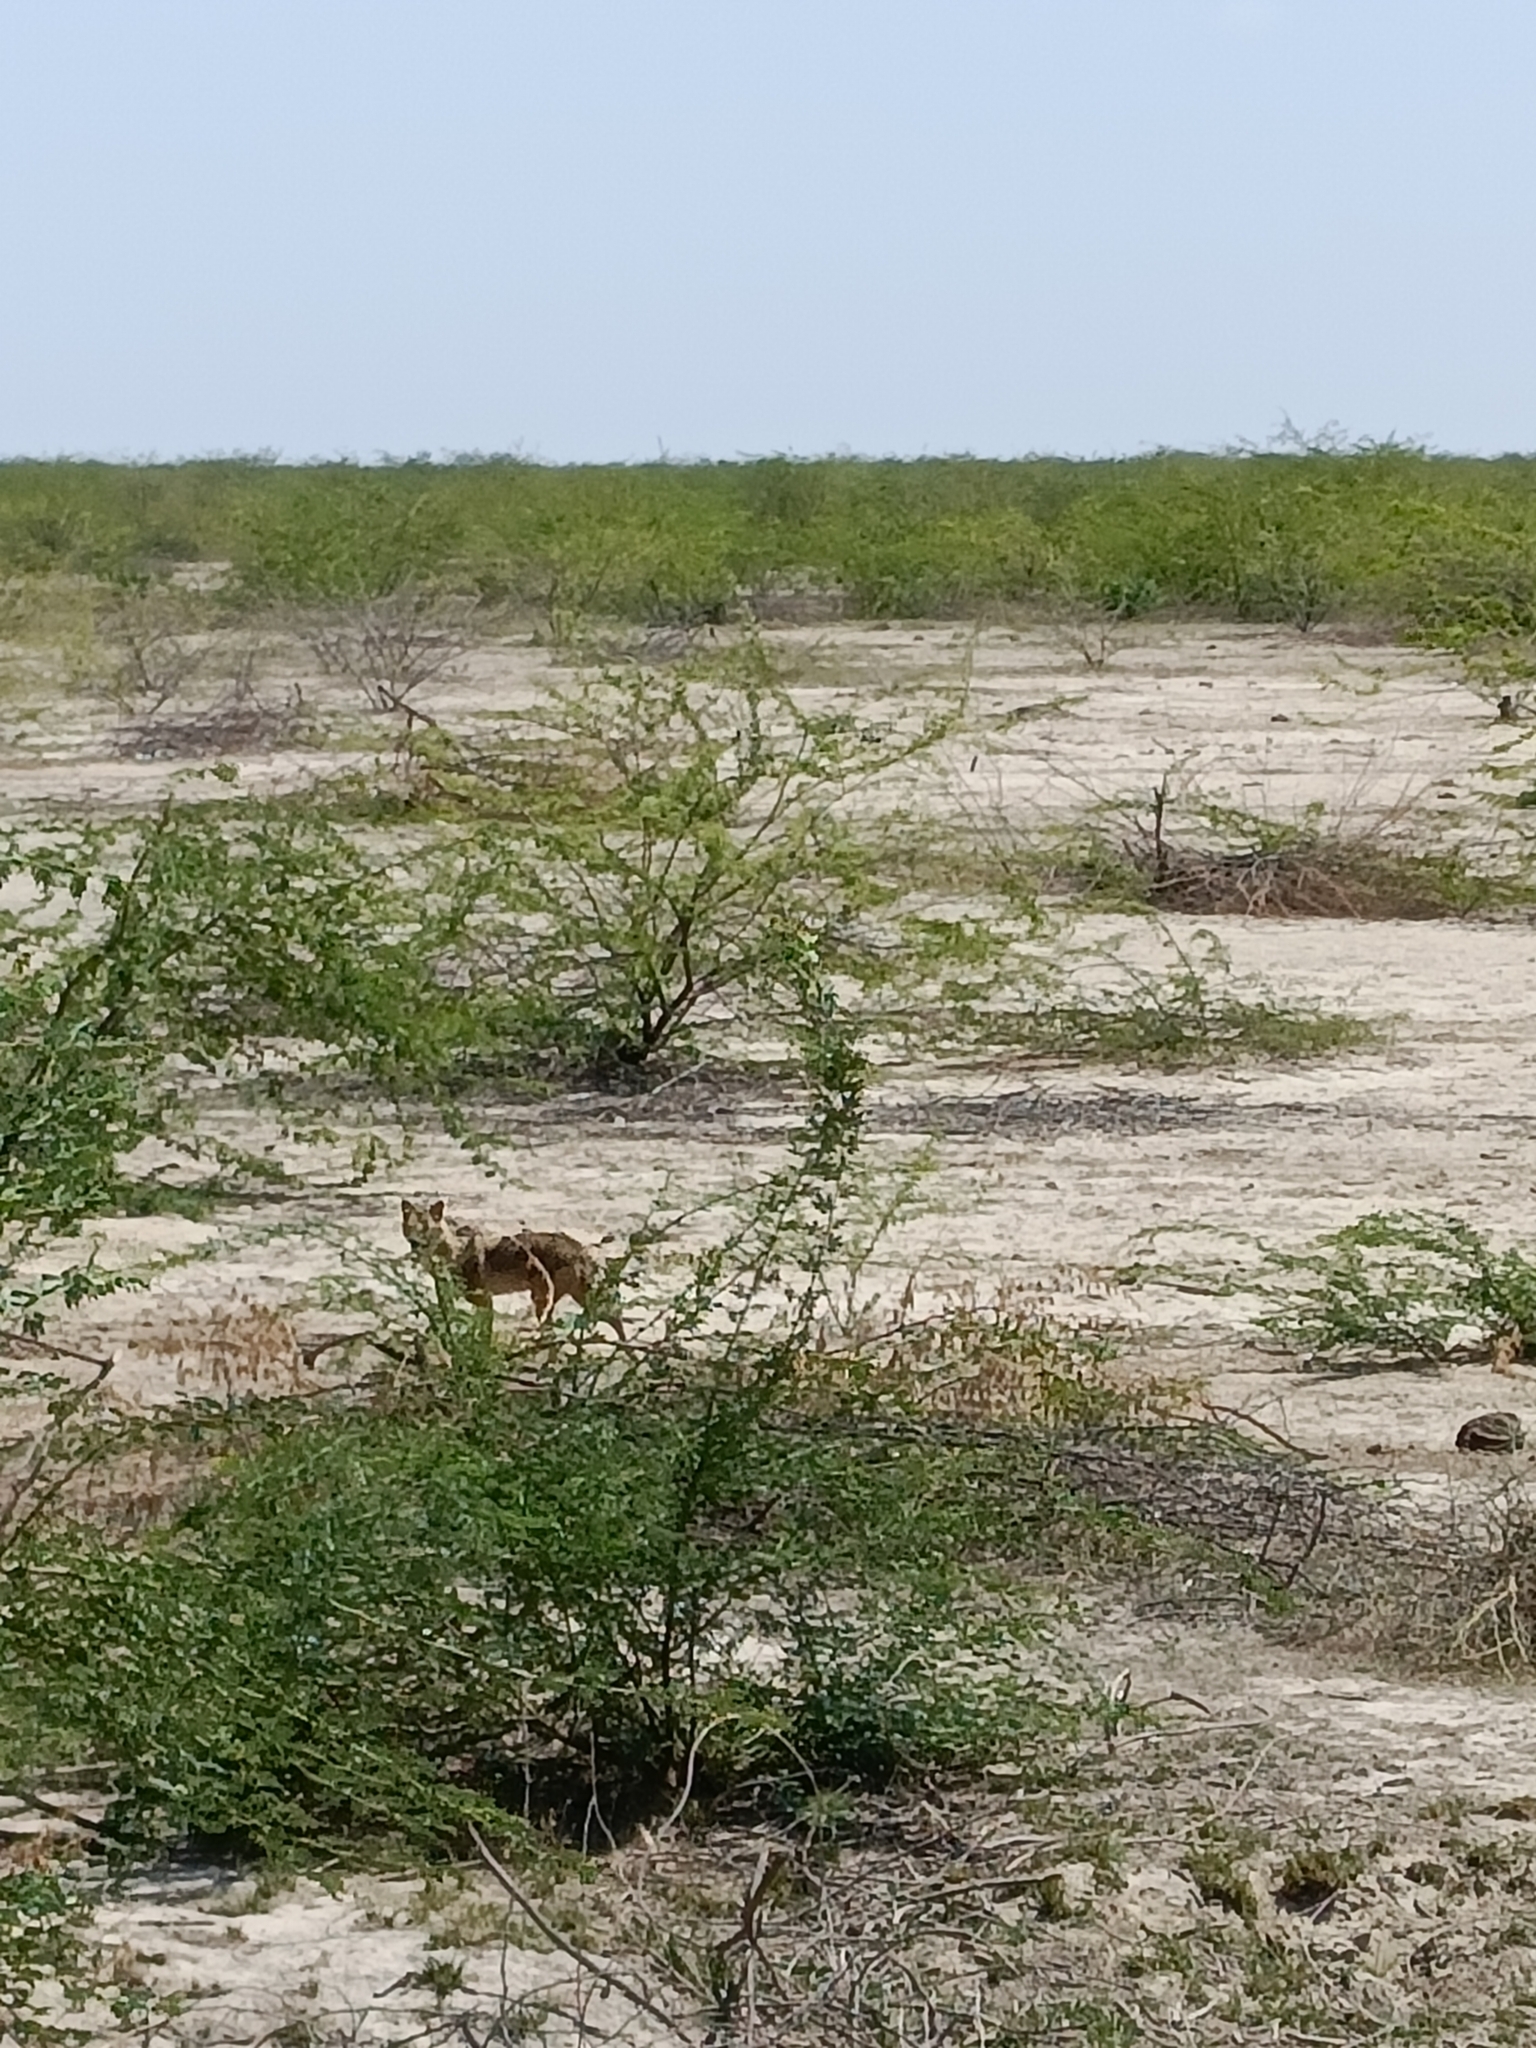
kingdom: Animalia
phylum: Chordata
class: Mammalia
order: Carnivora
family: Canidae
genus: Canis
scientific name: Canis aureus
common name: Golden jackal
